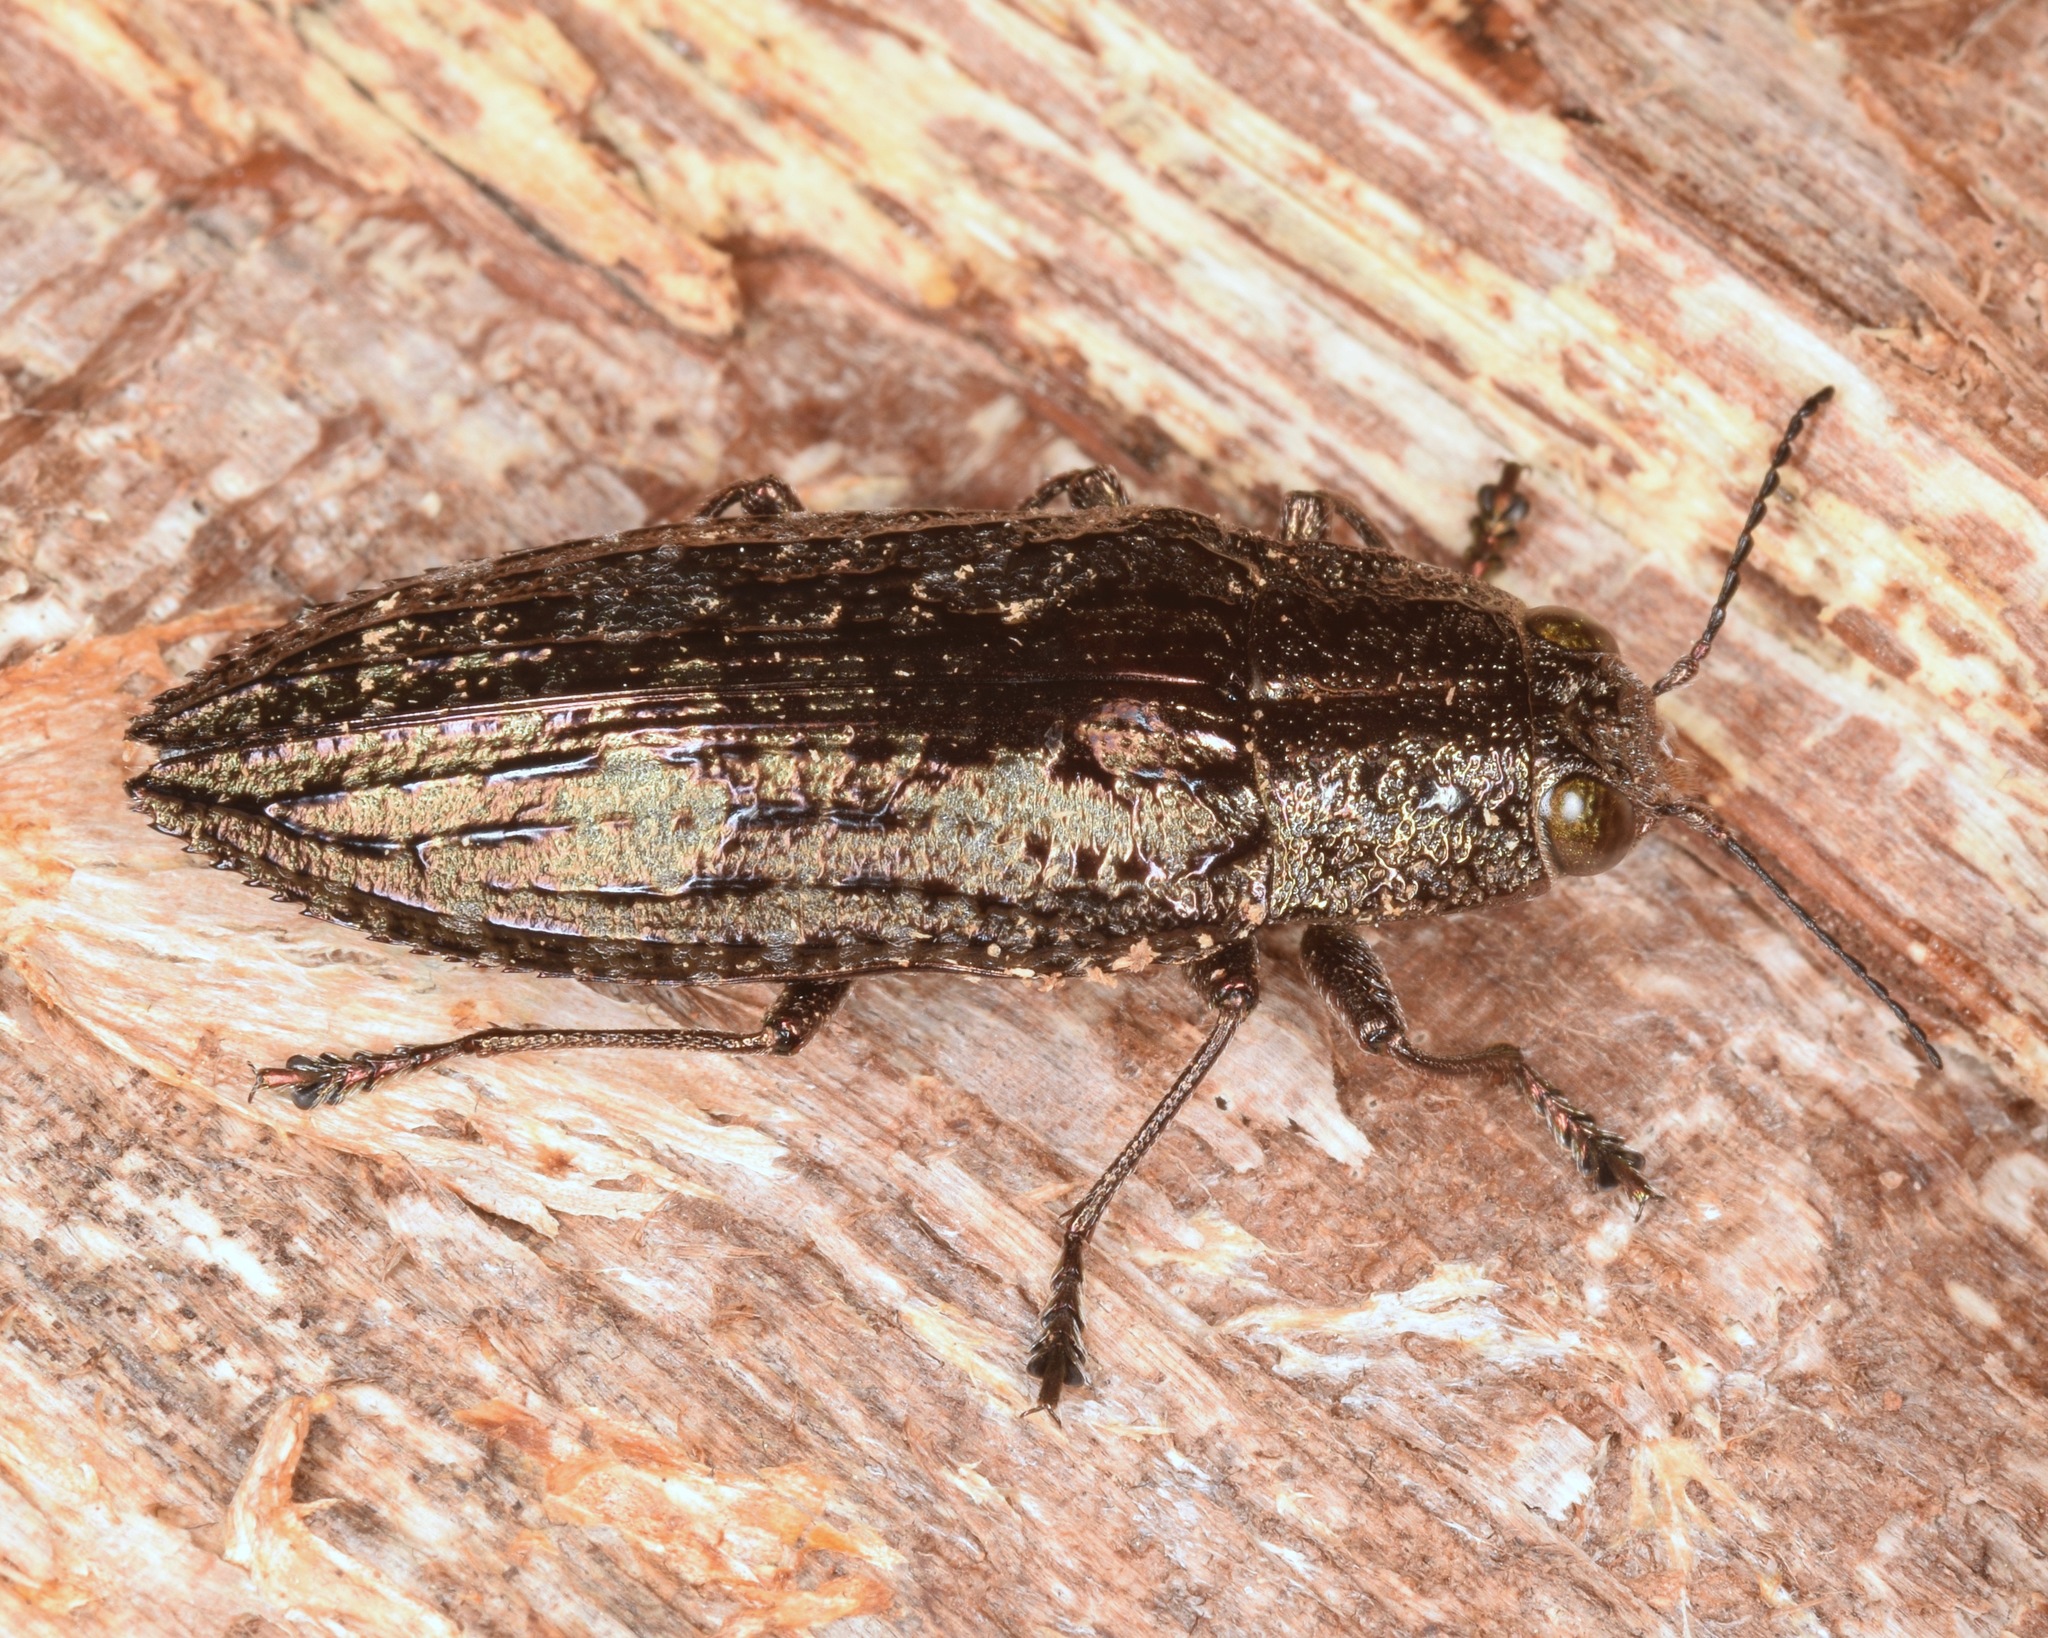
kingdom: Animalia
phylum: Arthropoda
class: Insecta
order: Coleoptera
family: Buprestidae
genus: Texania
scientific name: Texania campestris
